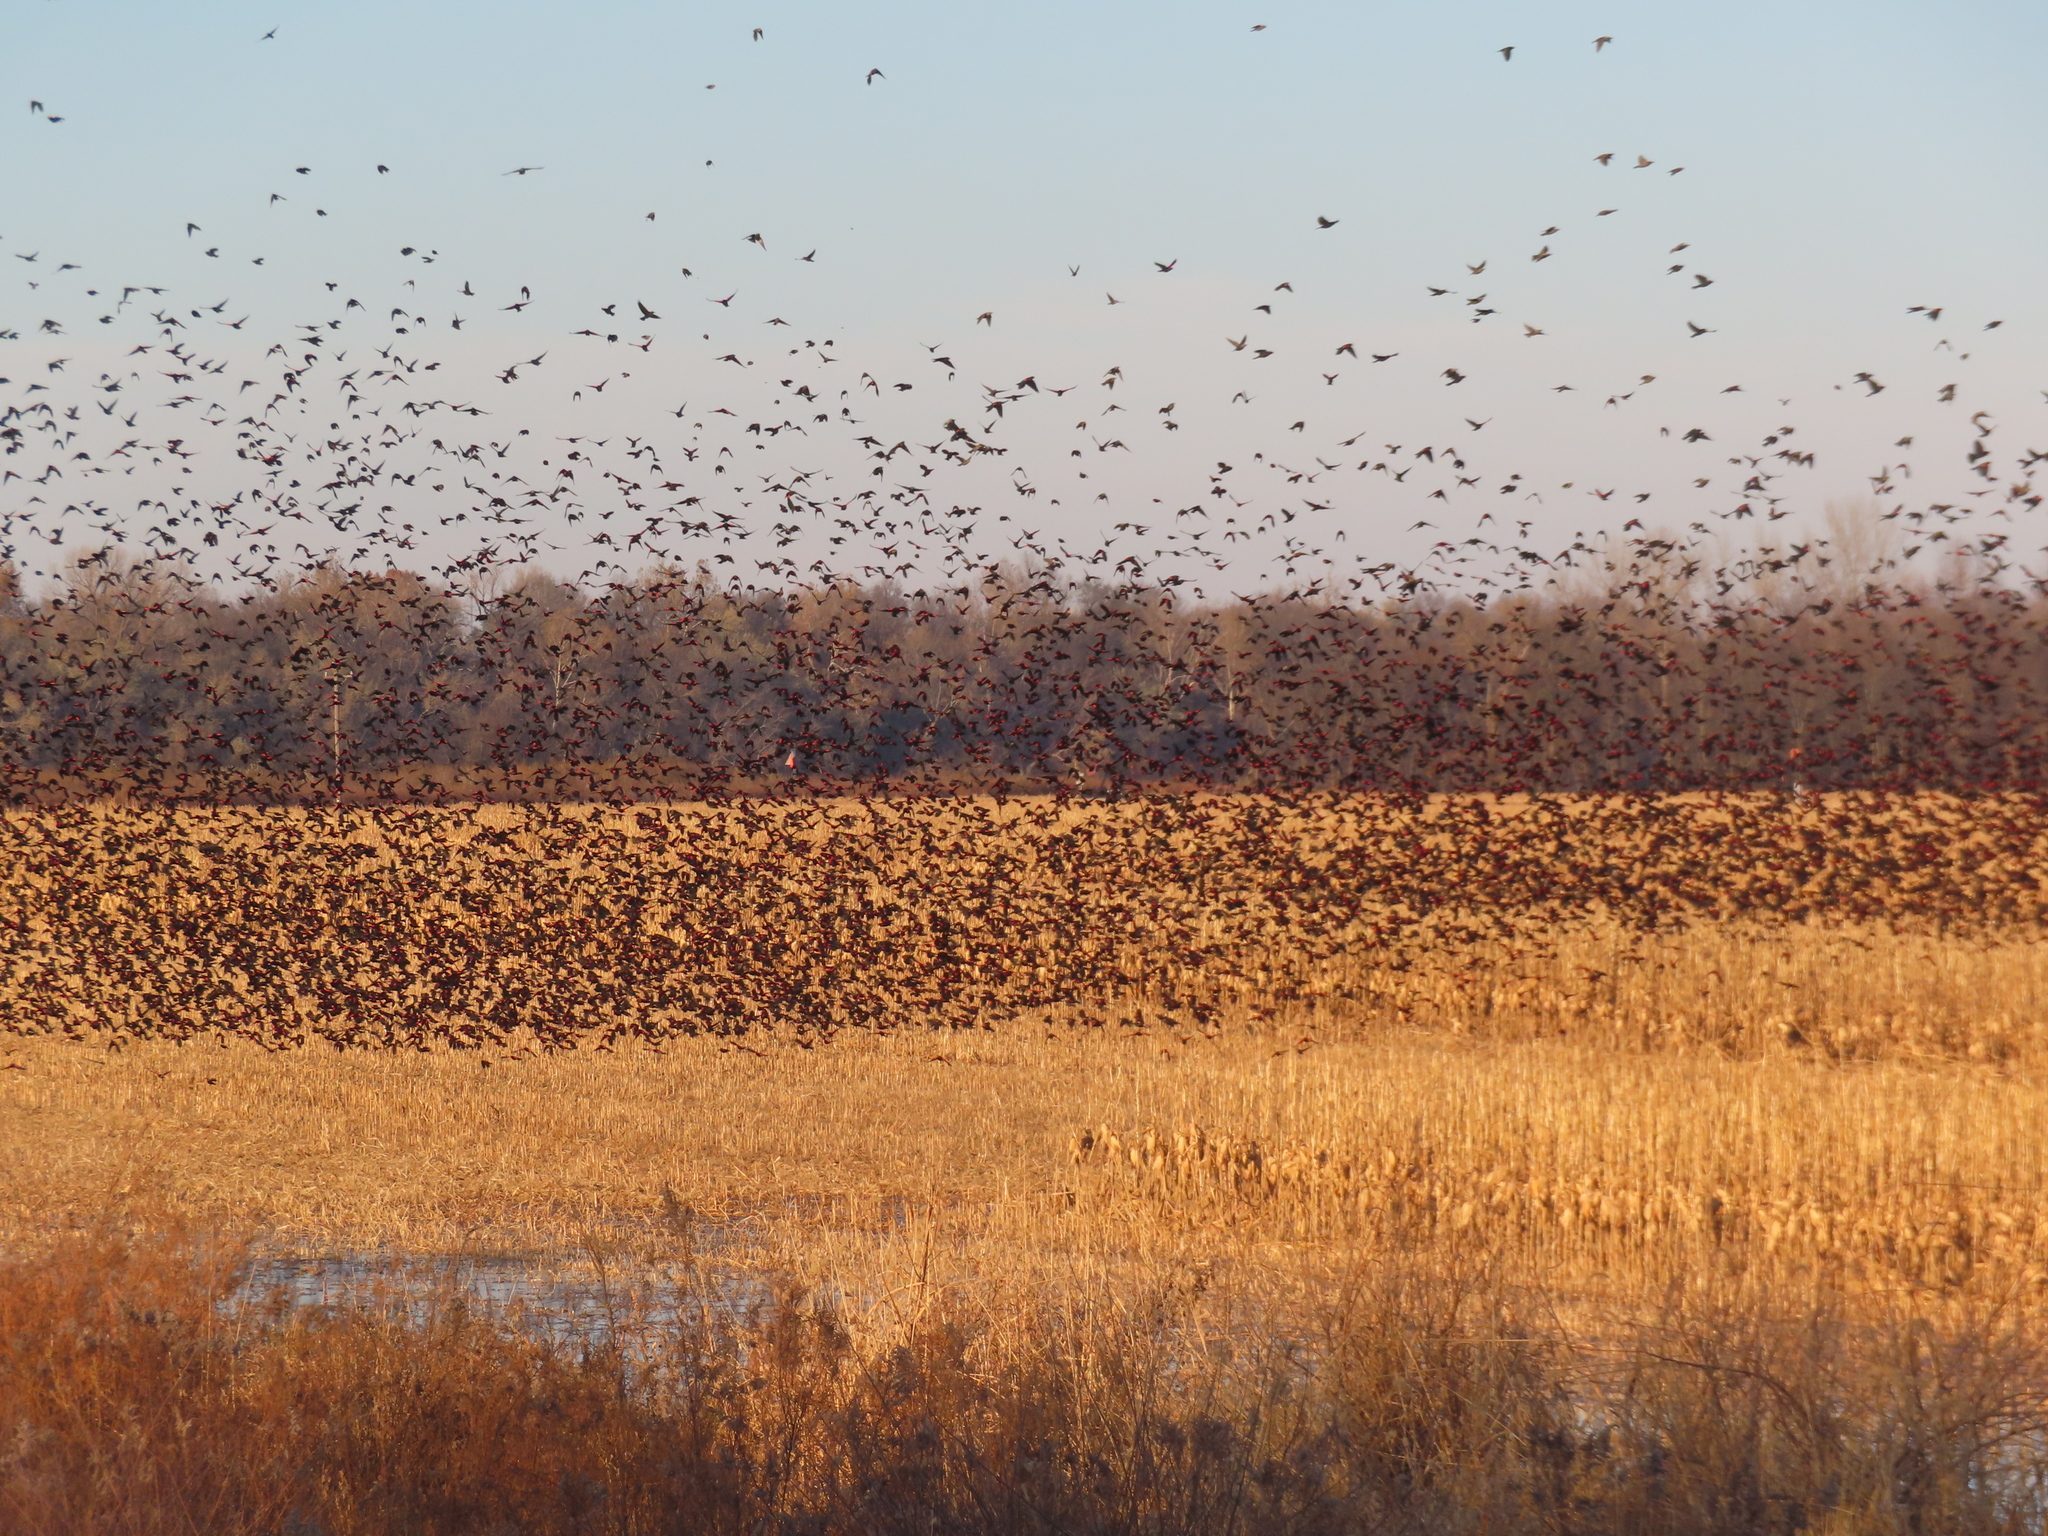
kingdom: Animalia
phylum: Chordata
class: Aves
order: Passeriformes
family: Icteridae
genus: Agelaius
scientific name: Agelaius phoeniceus
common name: Red-winged blackbird
